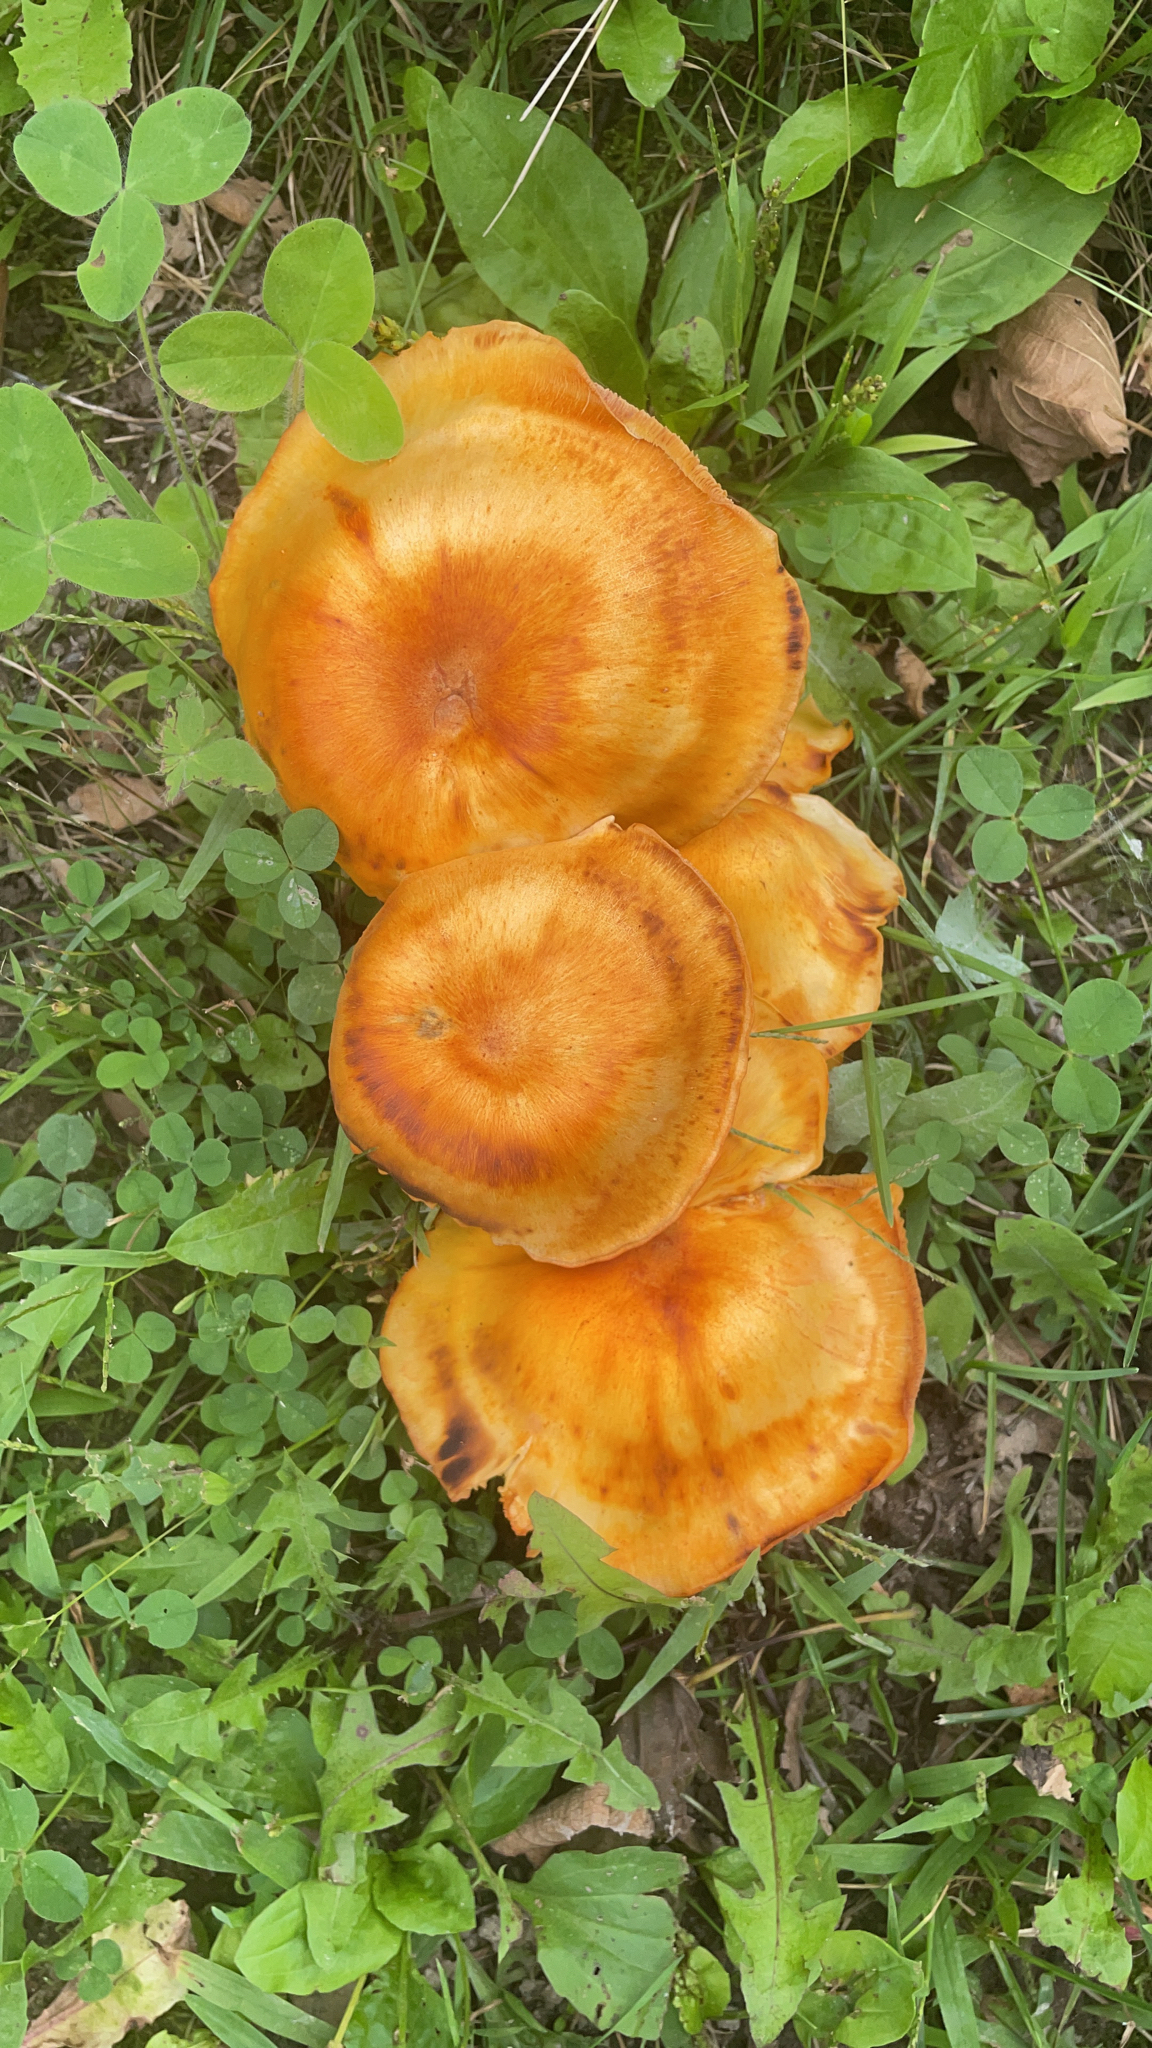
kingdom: Fungi
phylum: Basidiomycota
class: Agaricomycetes
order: Agaricales
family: Omphalotaceae
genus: Omphalotus
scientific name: Omphalotus illudens
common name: Jack o lantern
